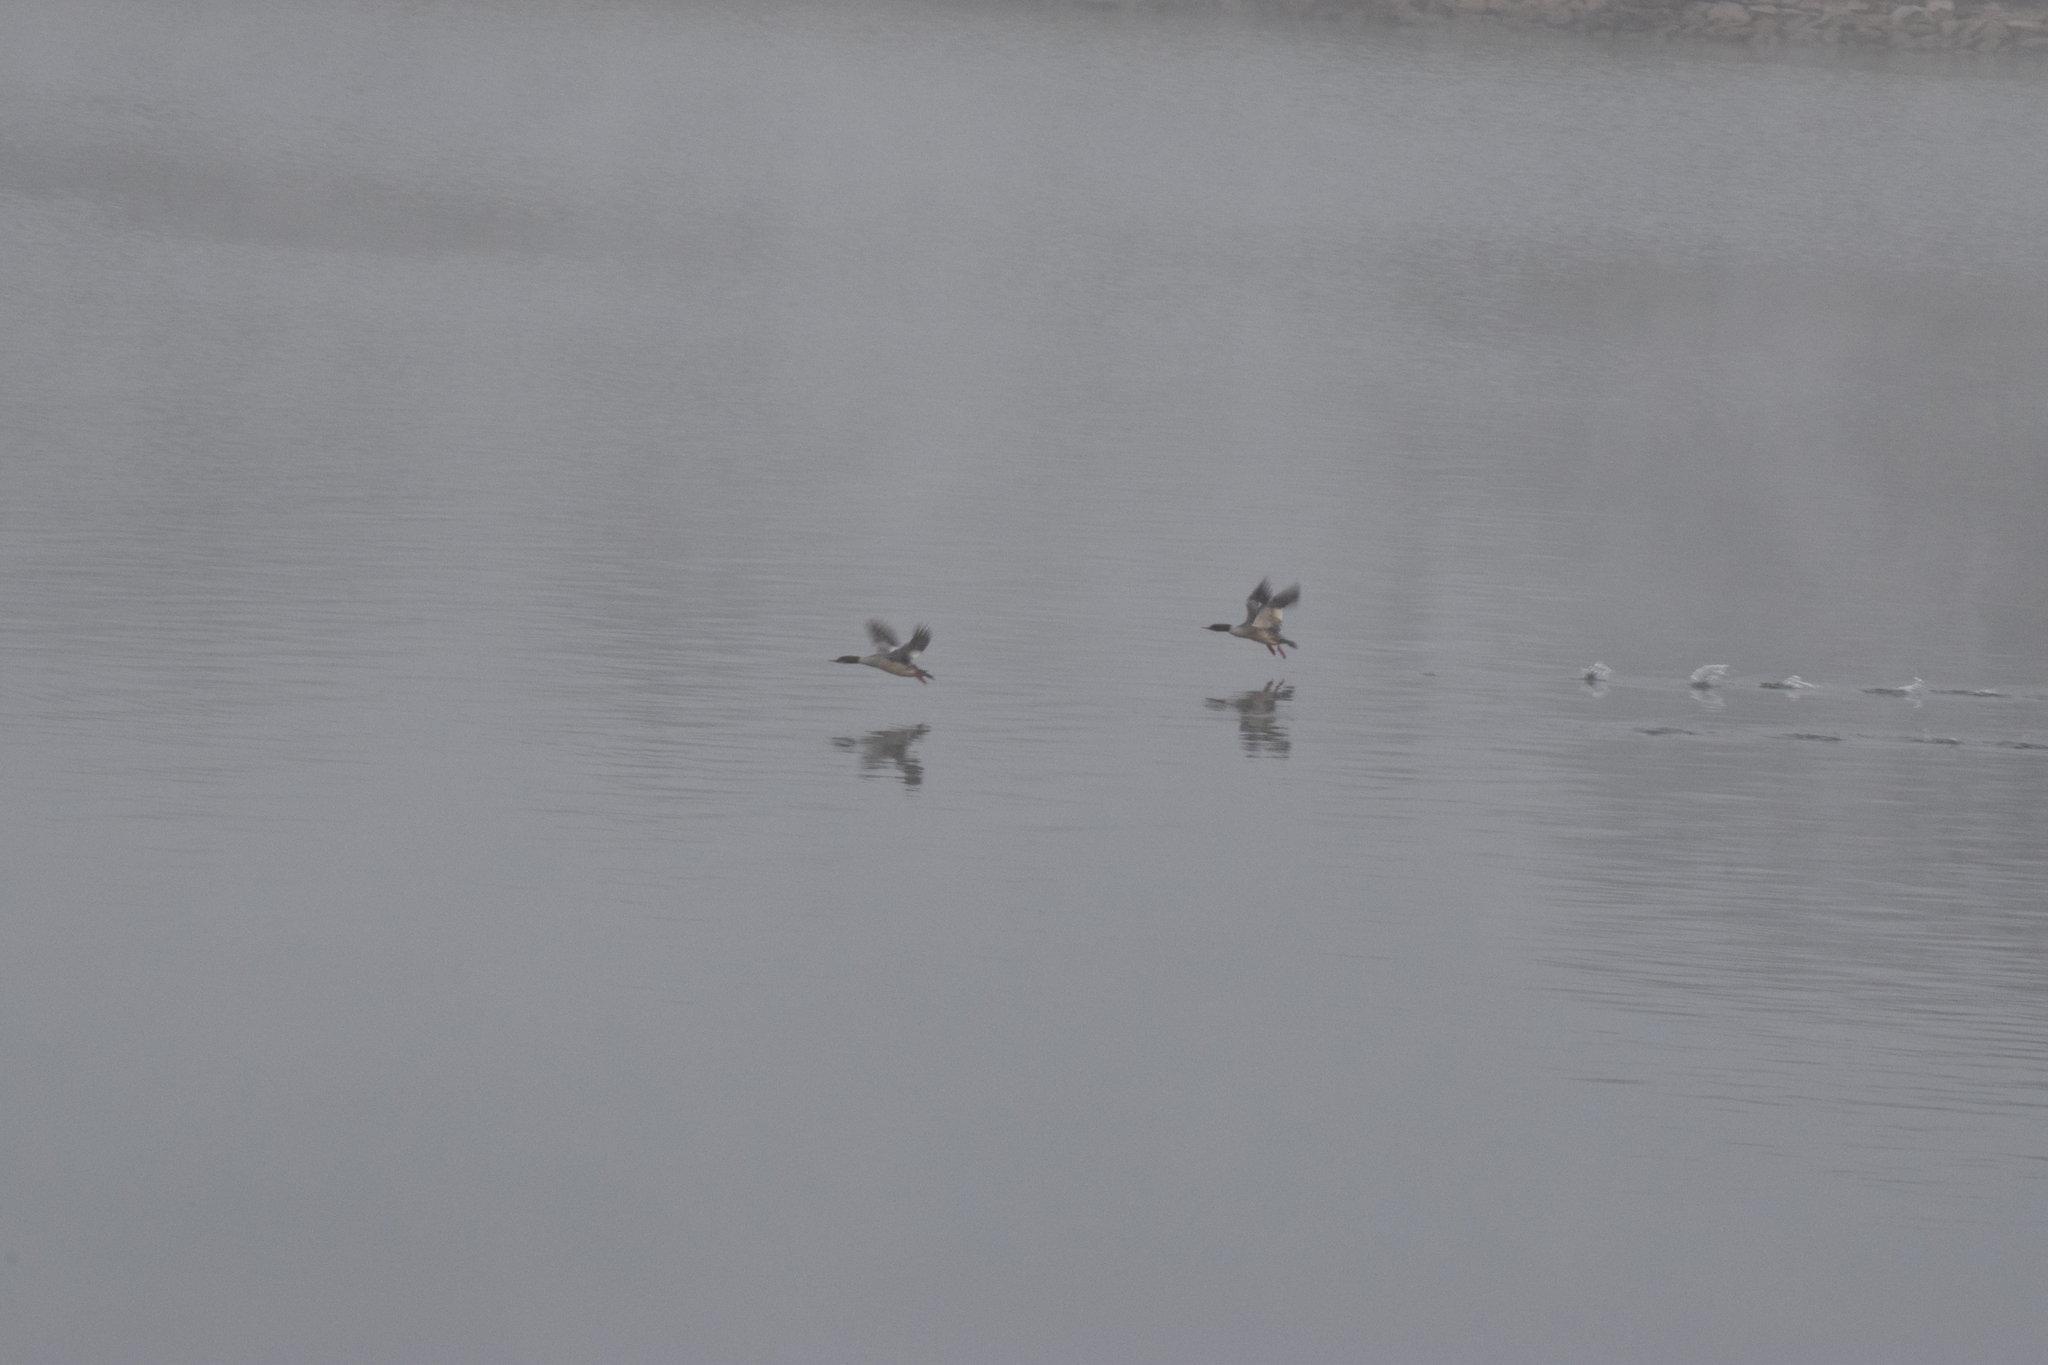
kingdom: Animalia
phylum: Chordata
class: Aves
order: Anseriformes
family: Anatidae
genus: Mergus
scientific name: Mergus merganser
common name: Common merganser
